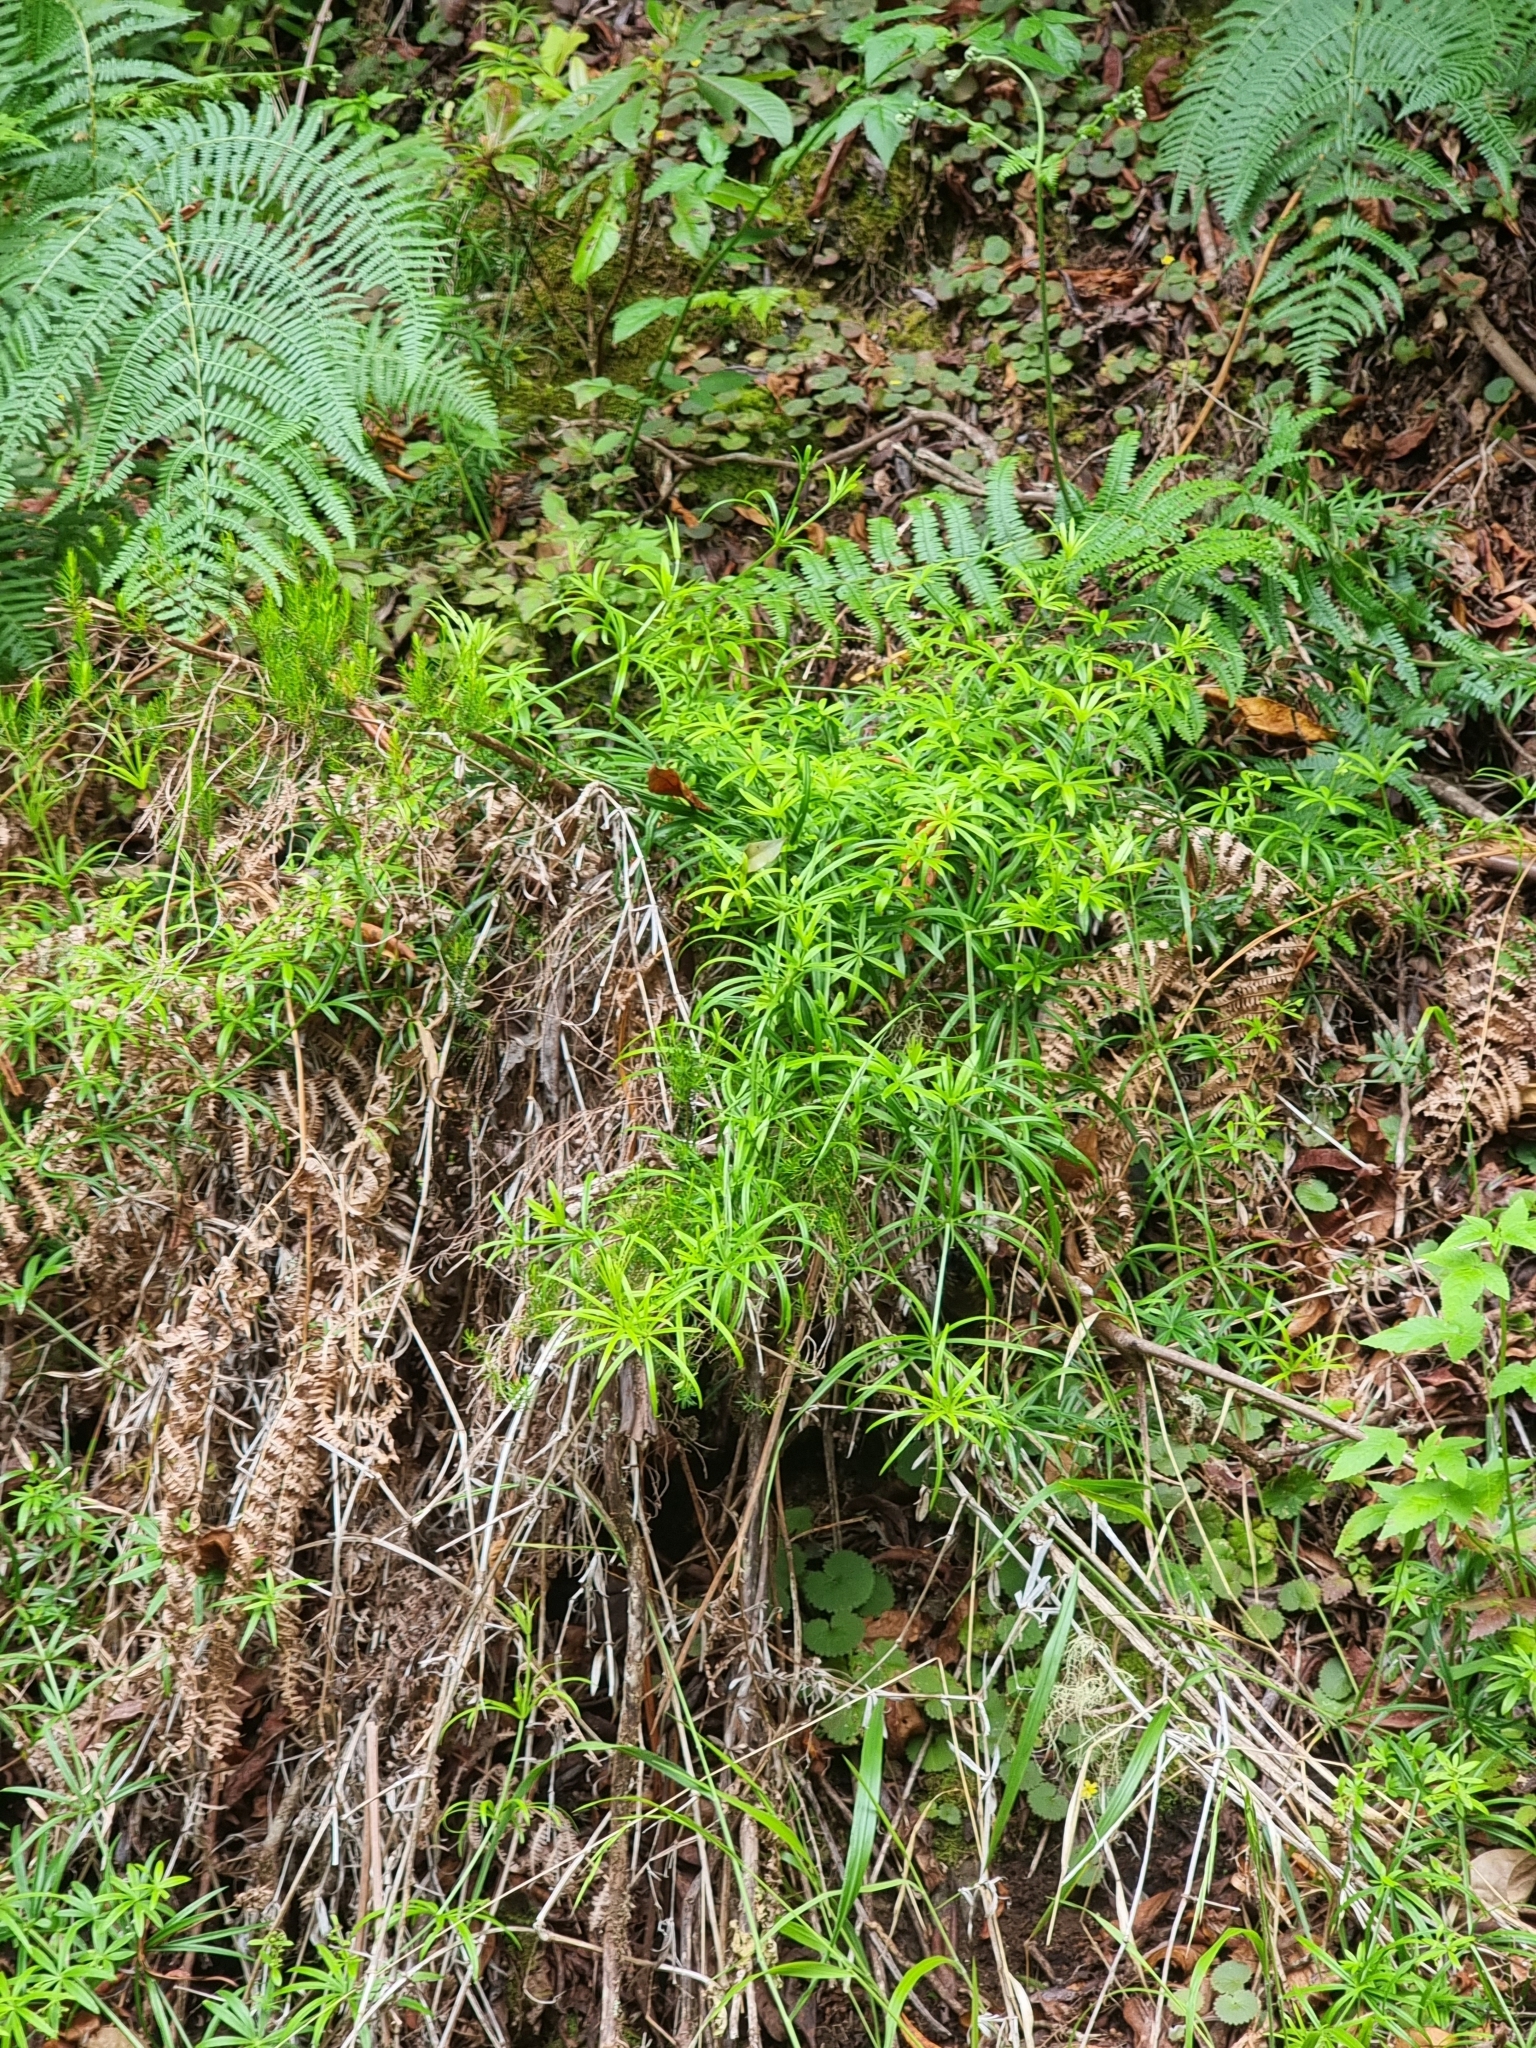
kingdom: Plantae
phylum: Tracheophyta
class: Magnoliopsida
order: Gentianales
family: Rubiaceae
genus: Rubia
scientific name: Rubia occidens
